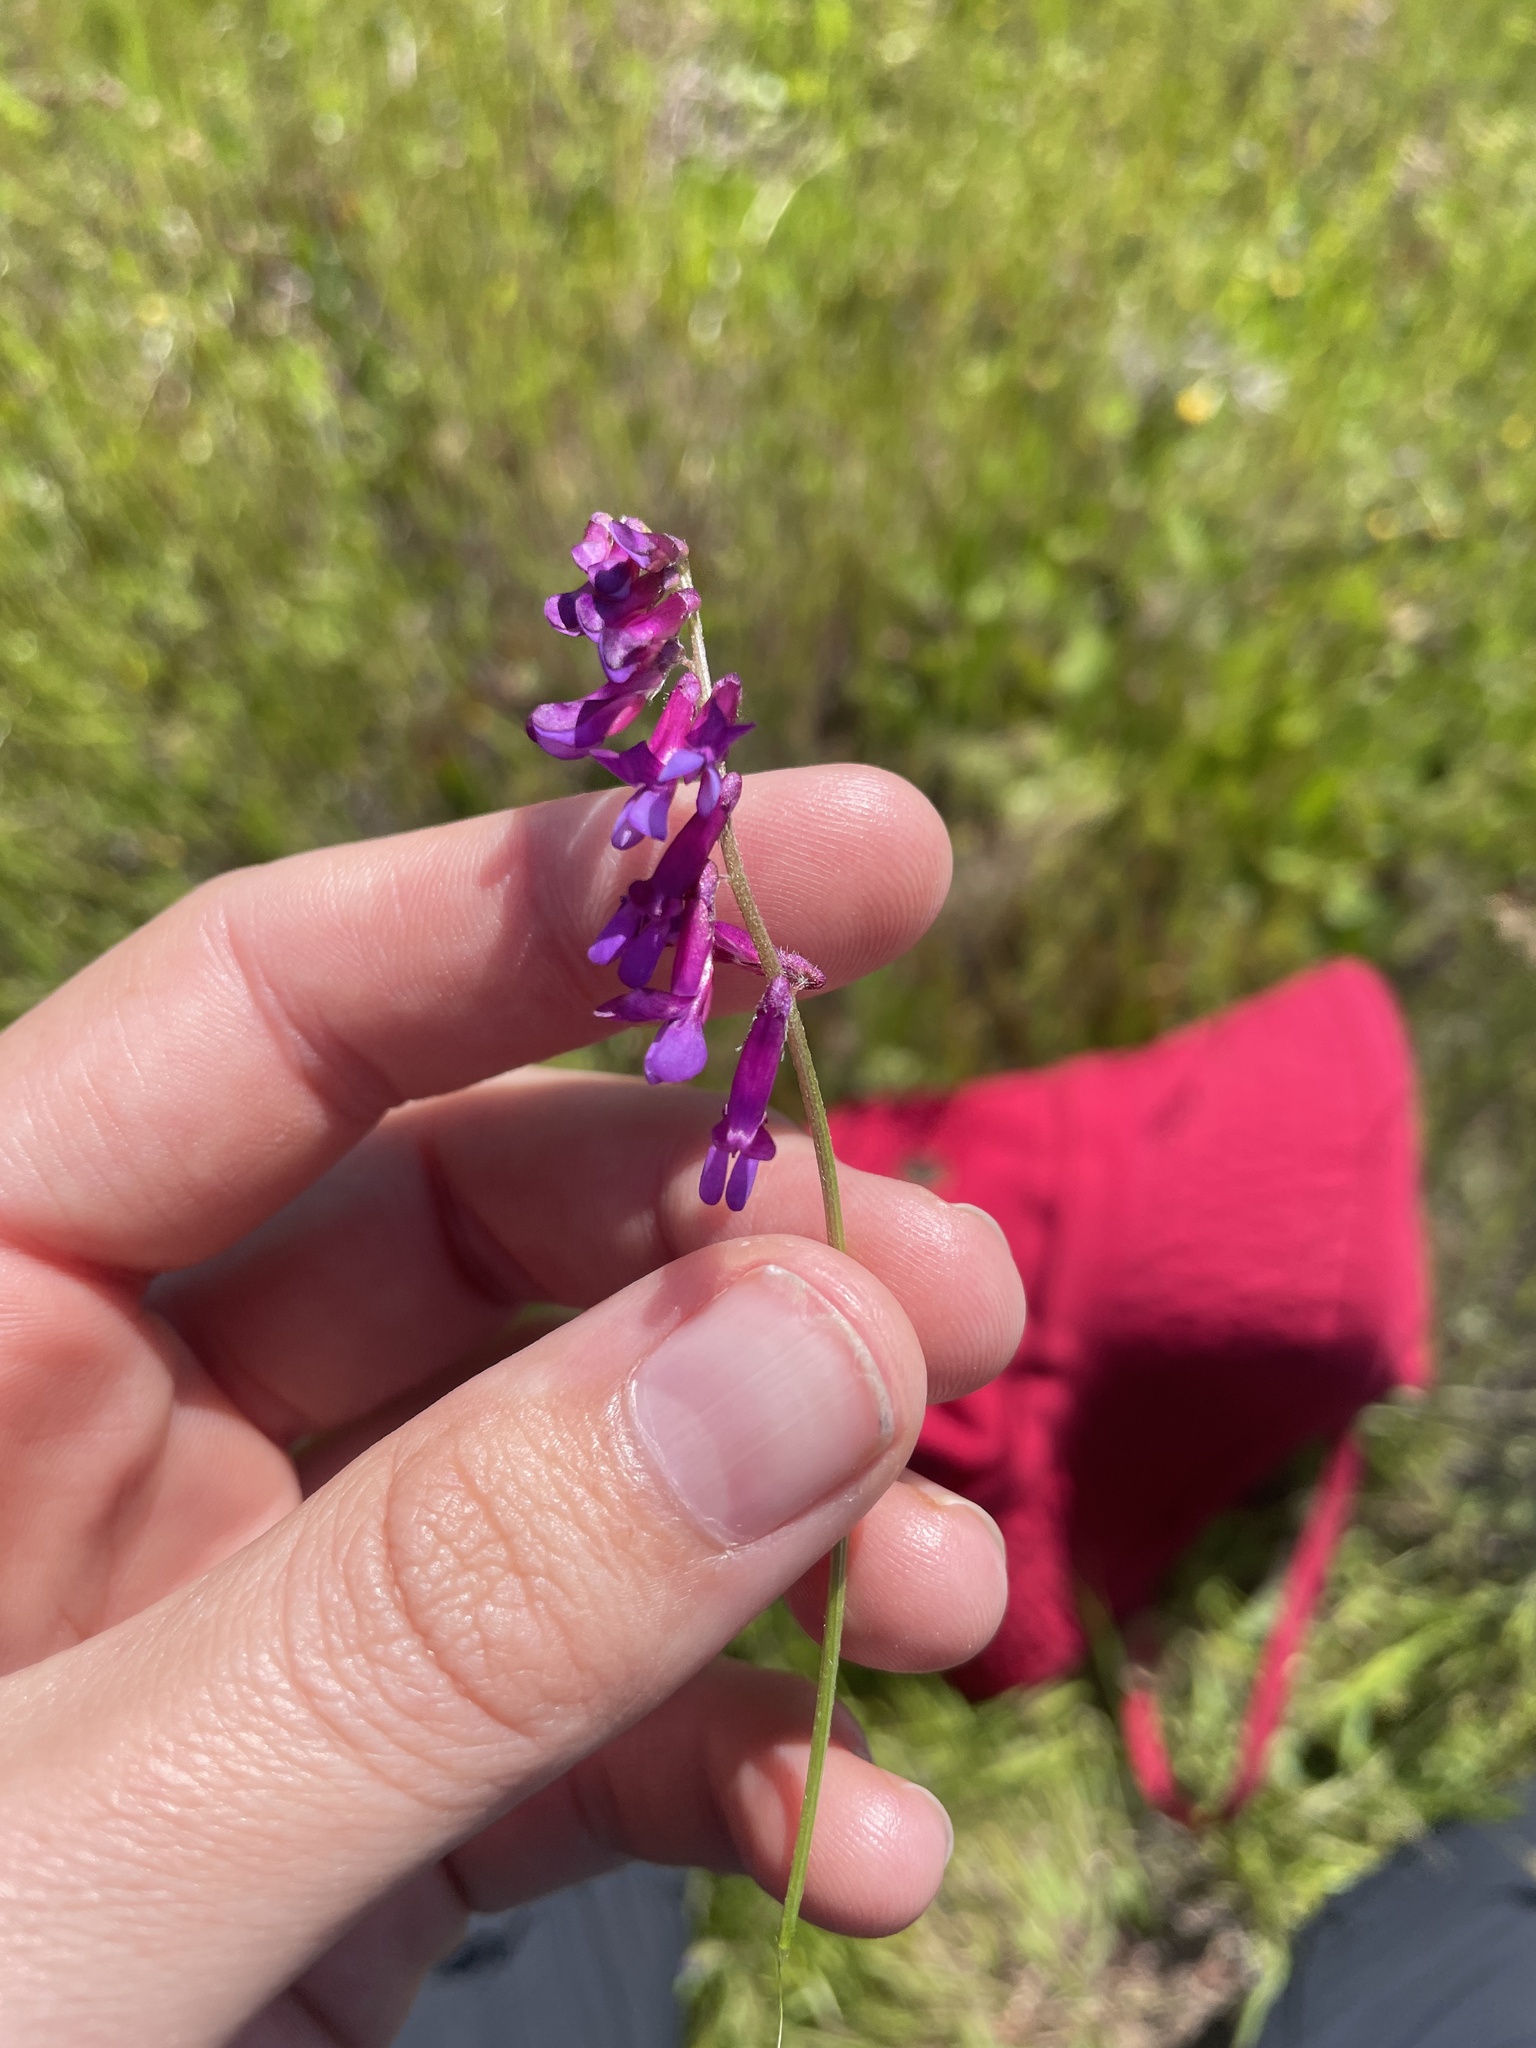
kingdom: Plantae
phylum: Tracheophyta
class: Magnoliopsida
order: Fabales
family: Fabaceae
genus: Vicia
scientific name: Vicia villosa
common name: Fodder vetch
